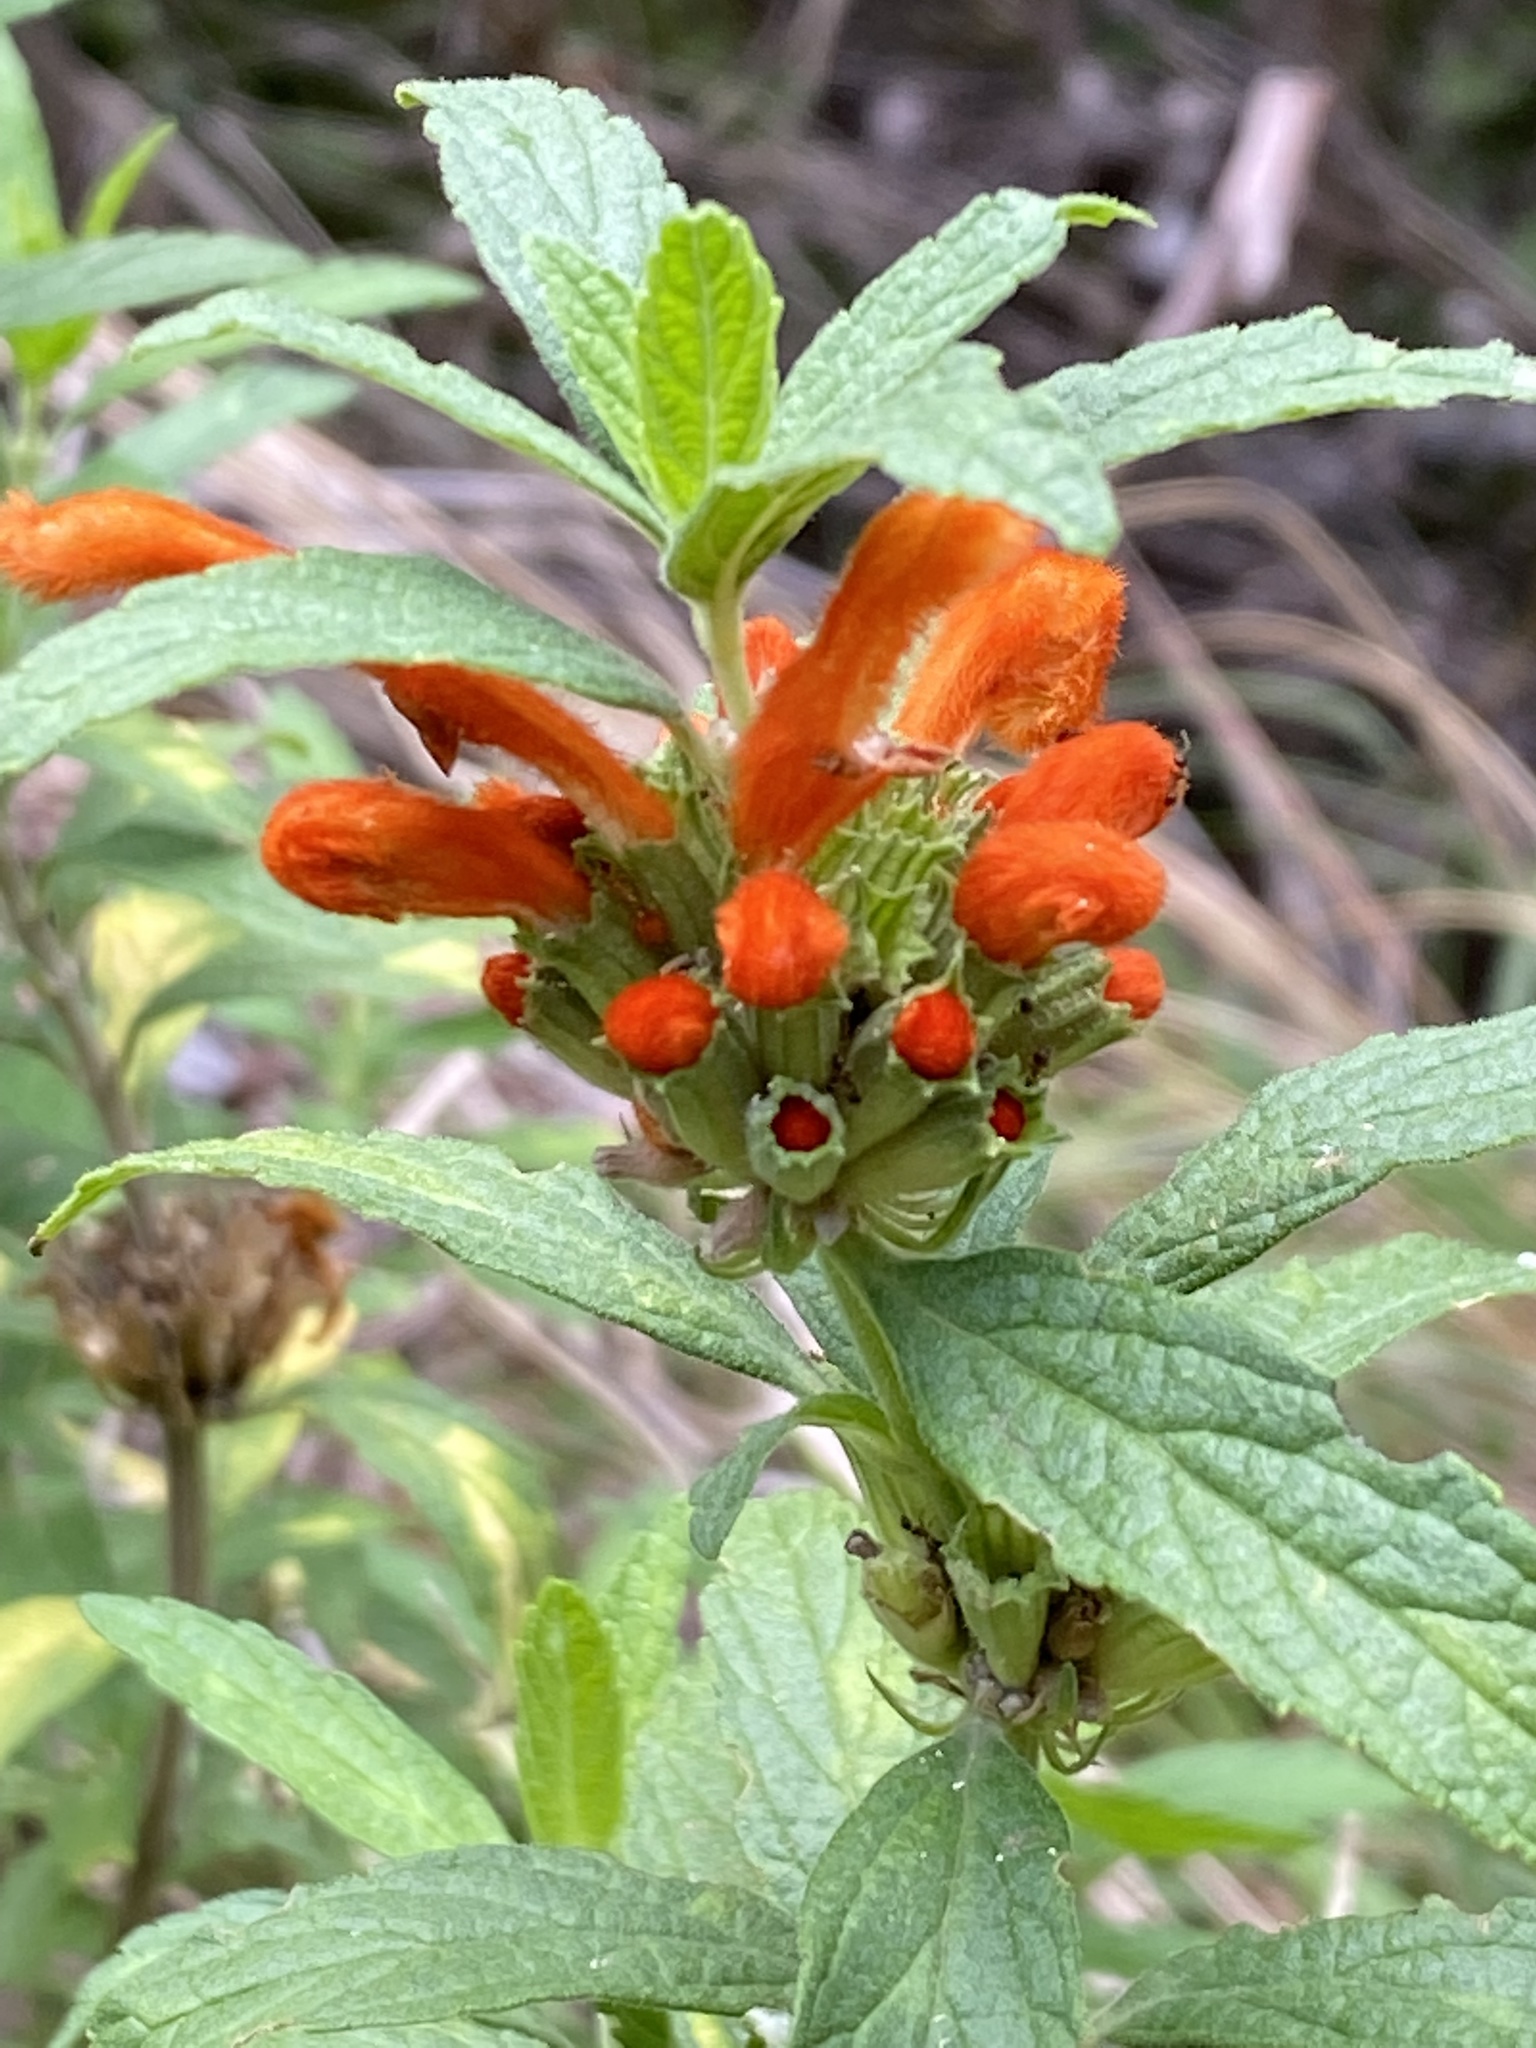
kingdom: Plantae
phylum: Tracheophyta
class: Magnoliopsida
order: Lamiales
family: Lamiaceae
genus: Leonotis
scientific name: Leonotis leonurus
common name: Lion's ear
